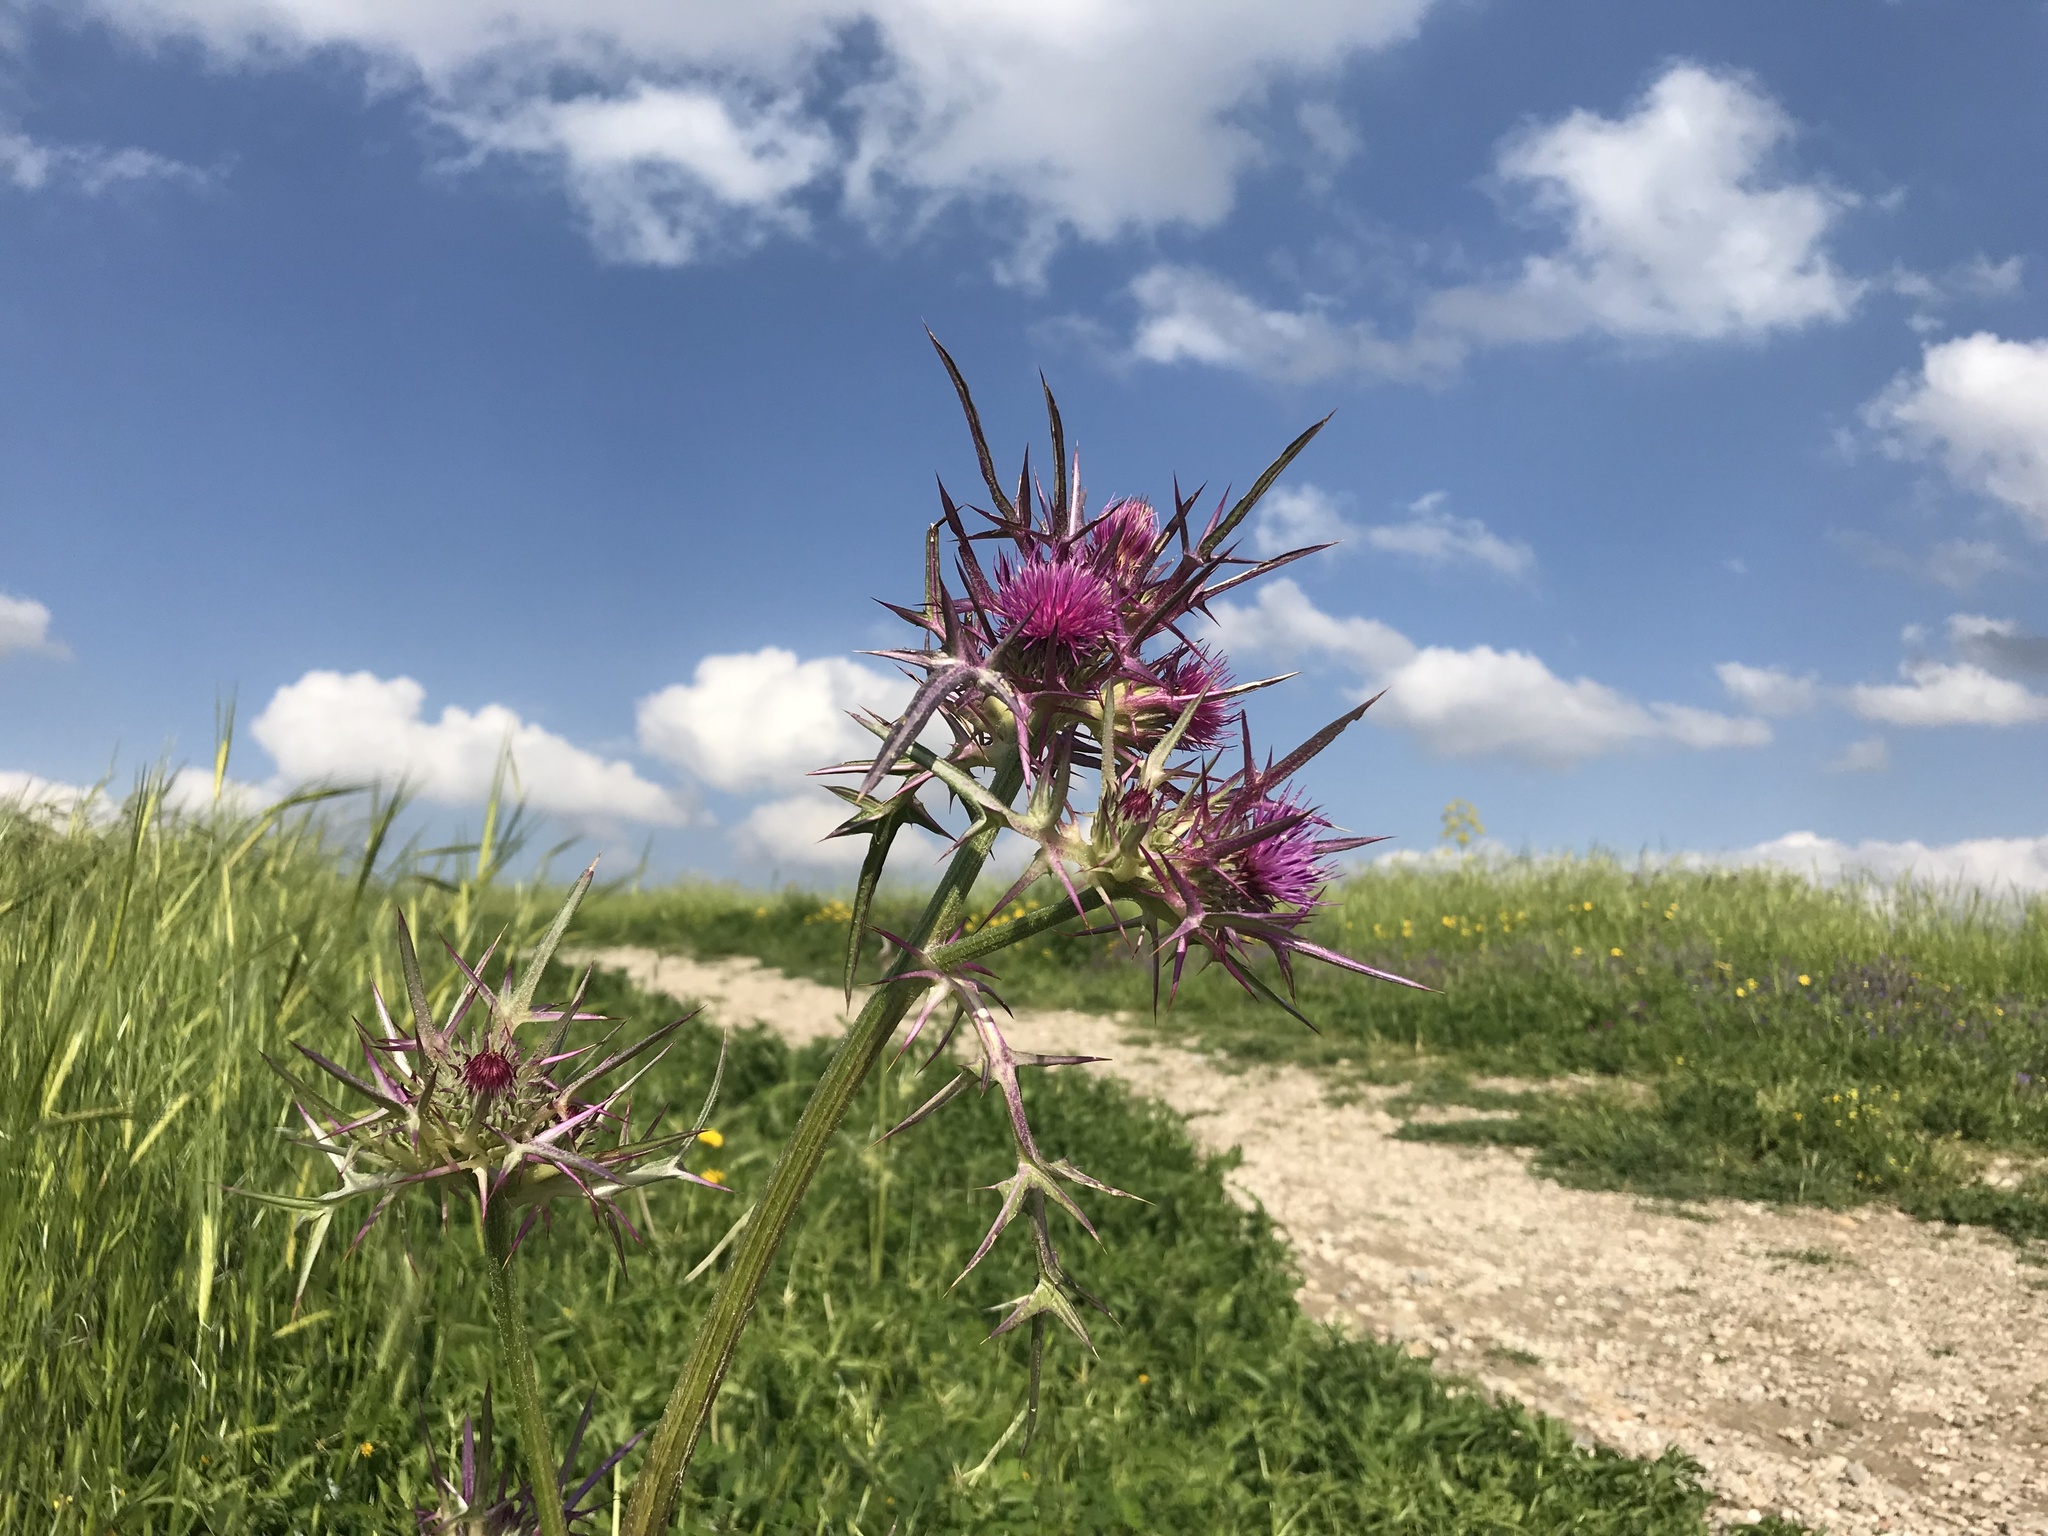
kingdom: Plantae
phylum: Tracheophyta
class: Magnoliopsida
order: Asterales
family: Asteraceae
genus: Notobasis
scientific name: Notobasis syriaca
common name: Syrian thistle
